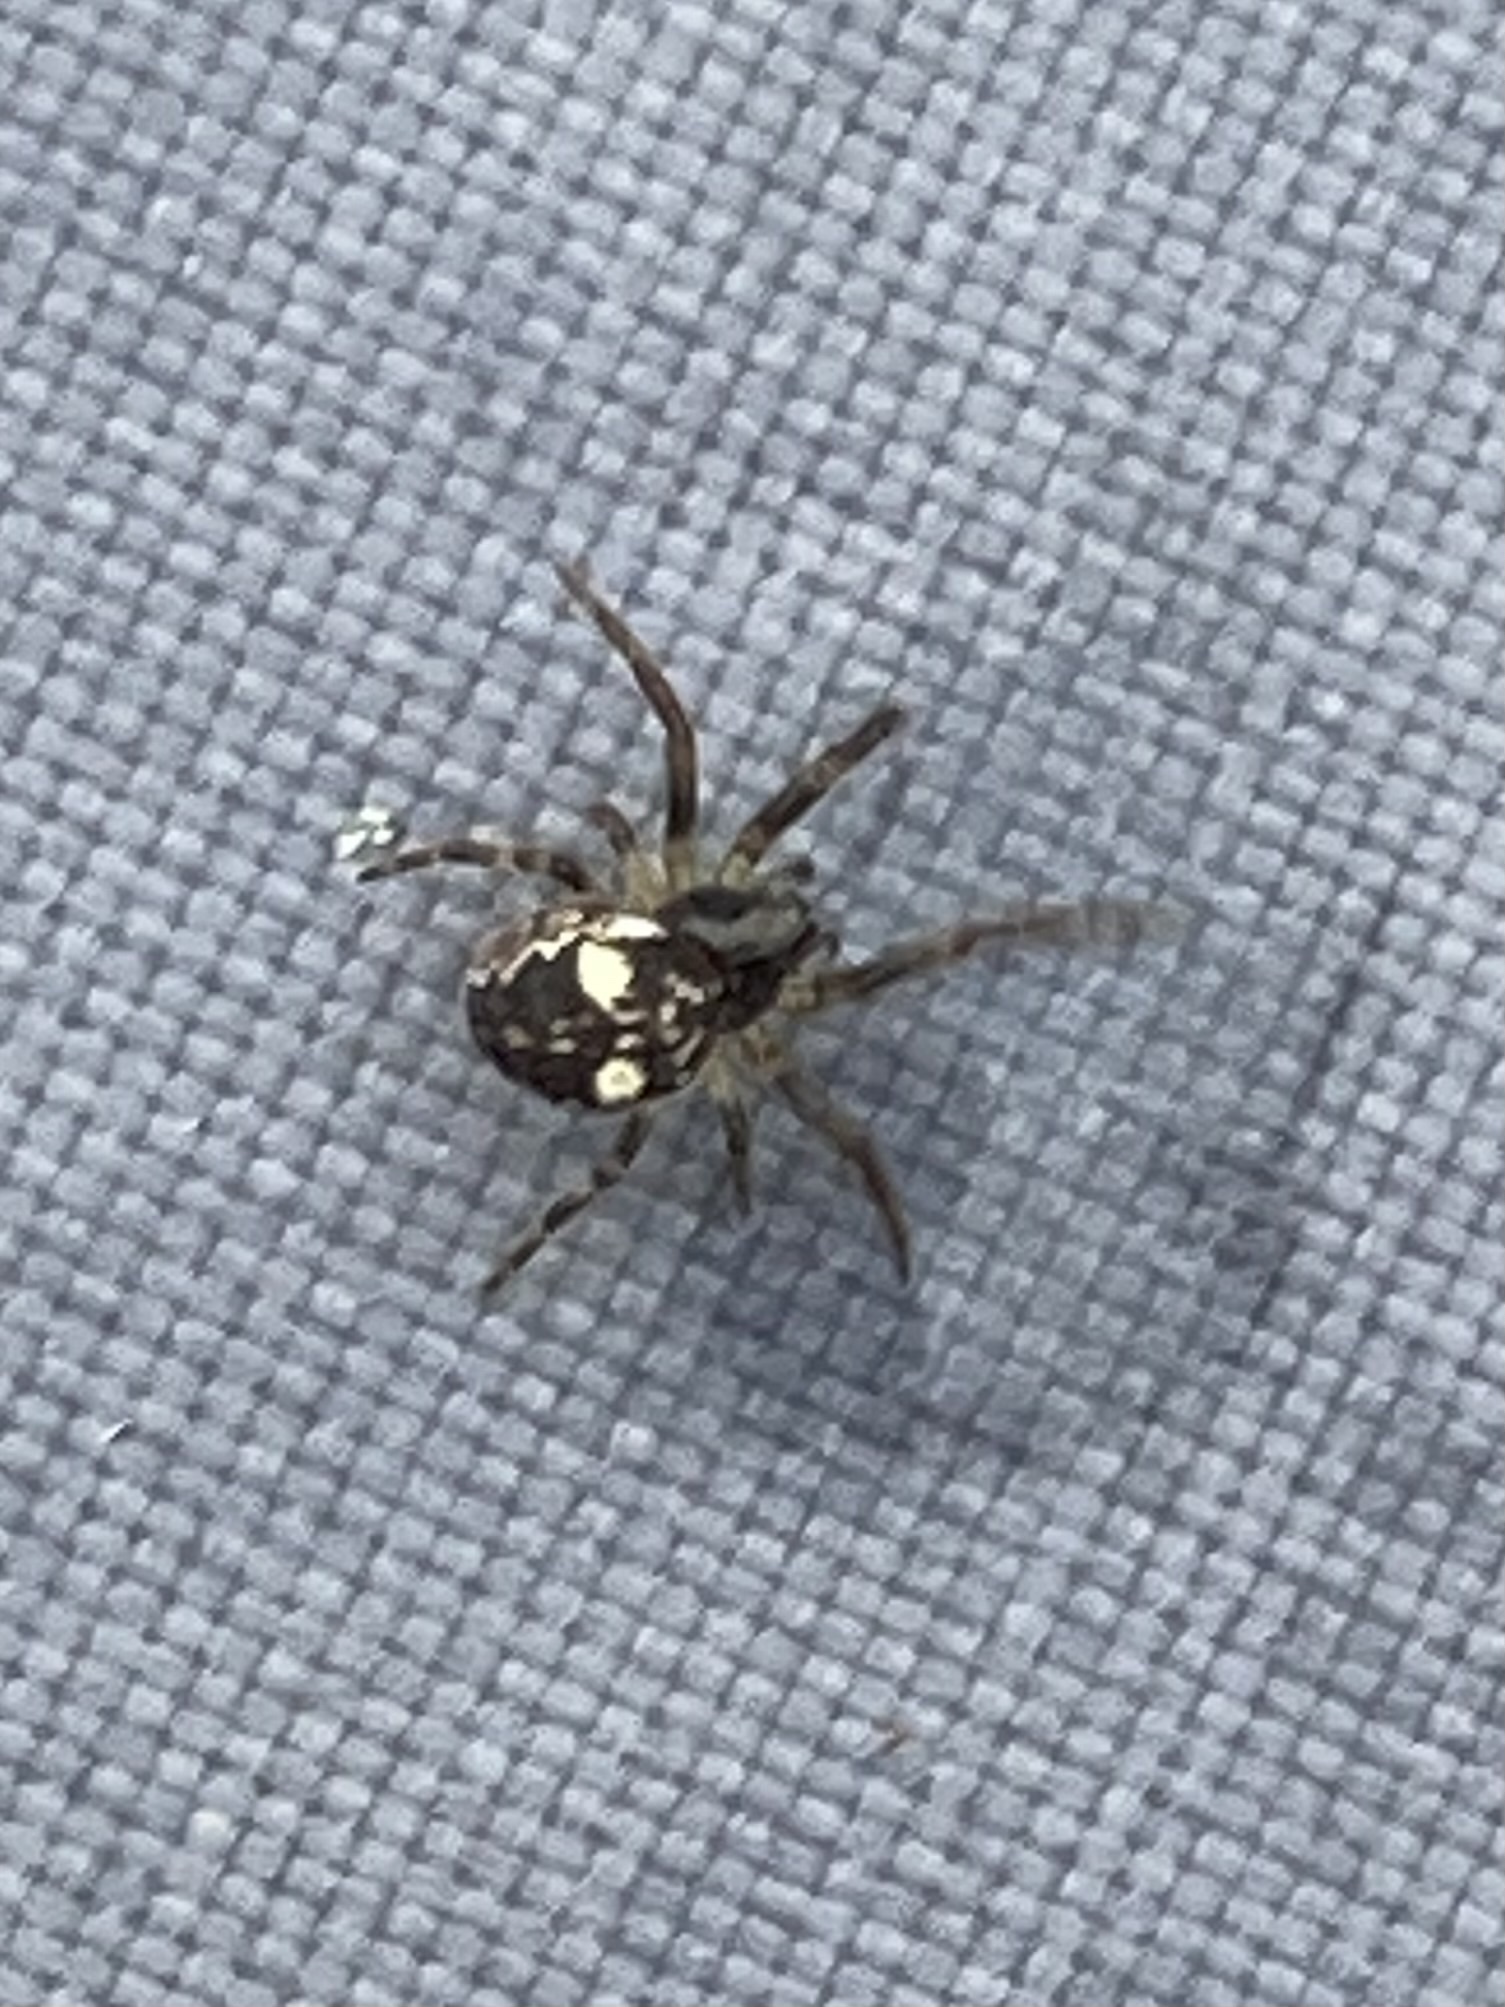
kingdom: Animalia
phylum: Arthropoda
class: Arachnida
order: Araneae
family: Araneidae
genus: Larinioides
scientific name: Larinioides patagiatus
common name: Ornamental orbweaver
